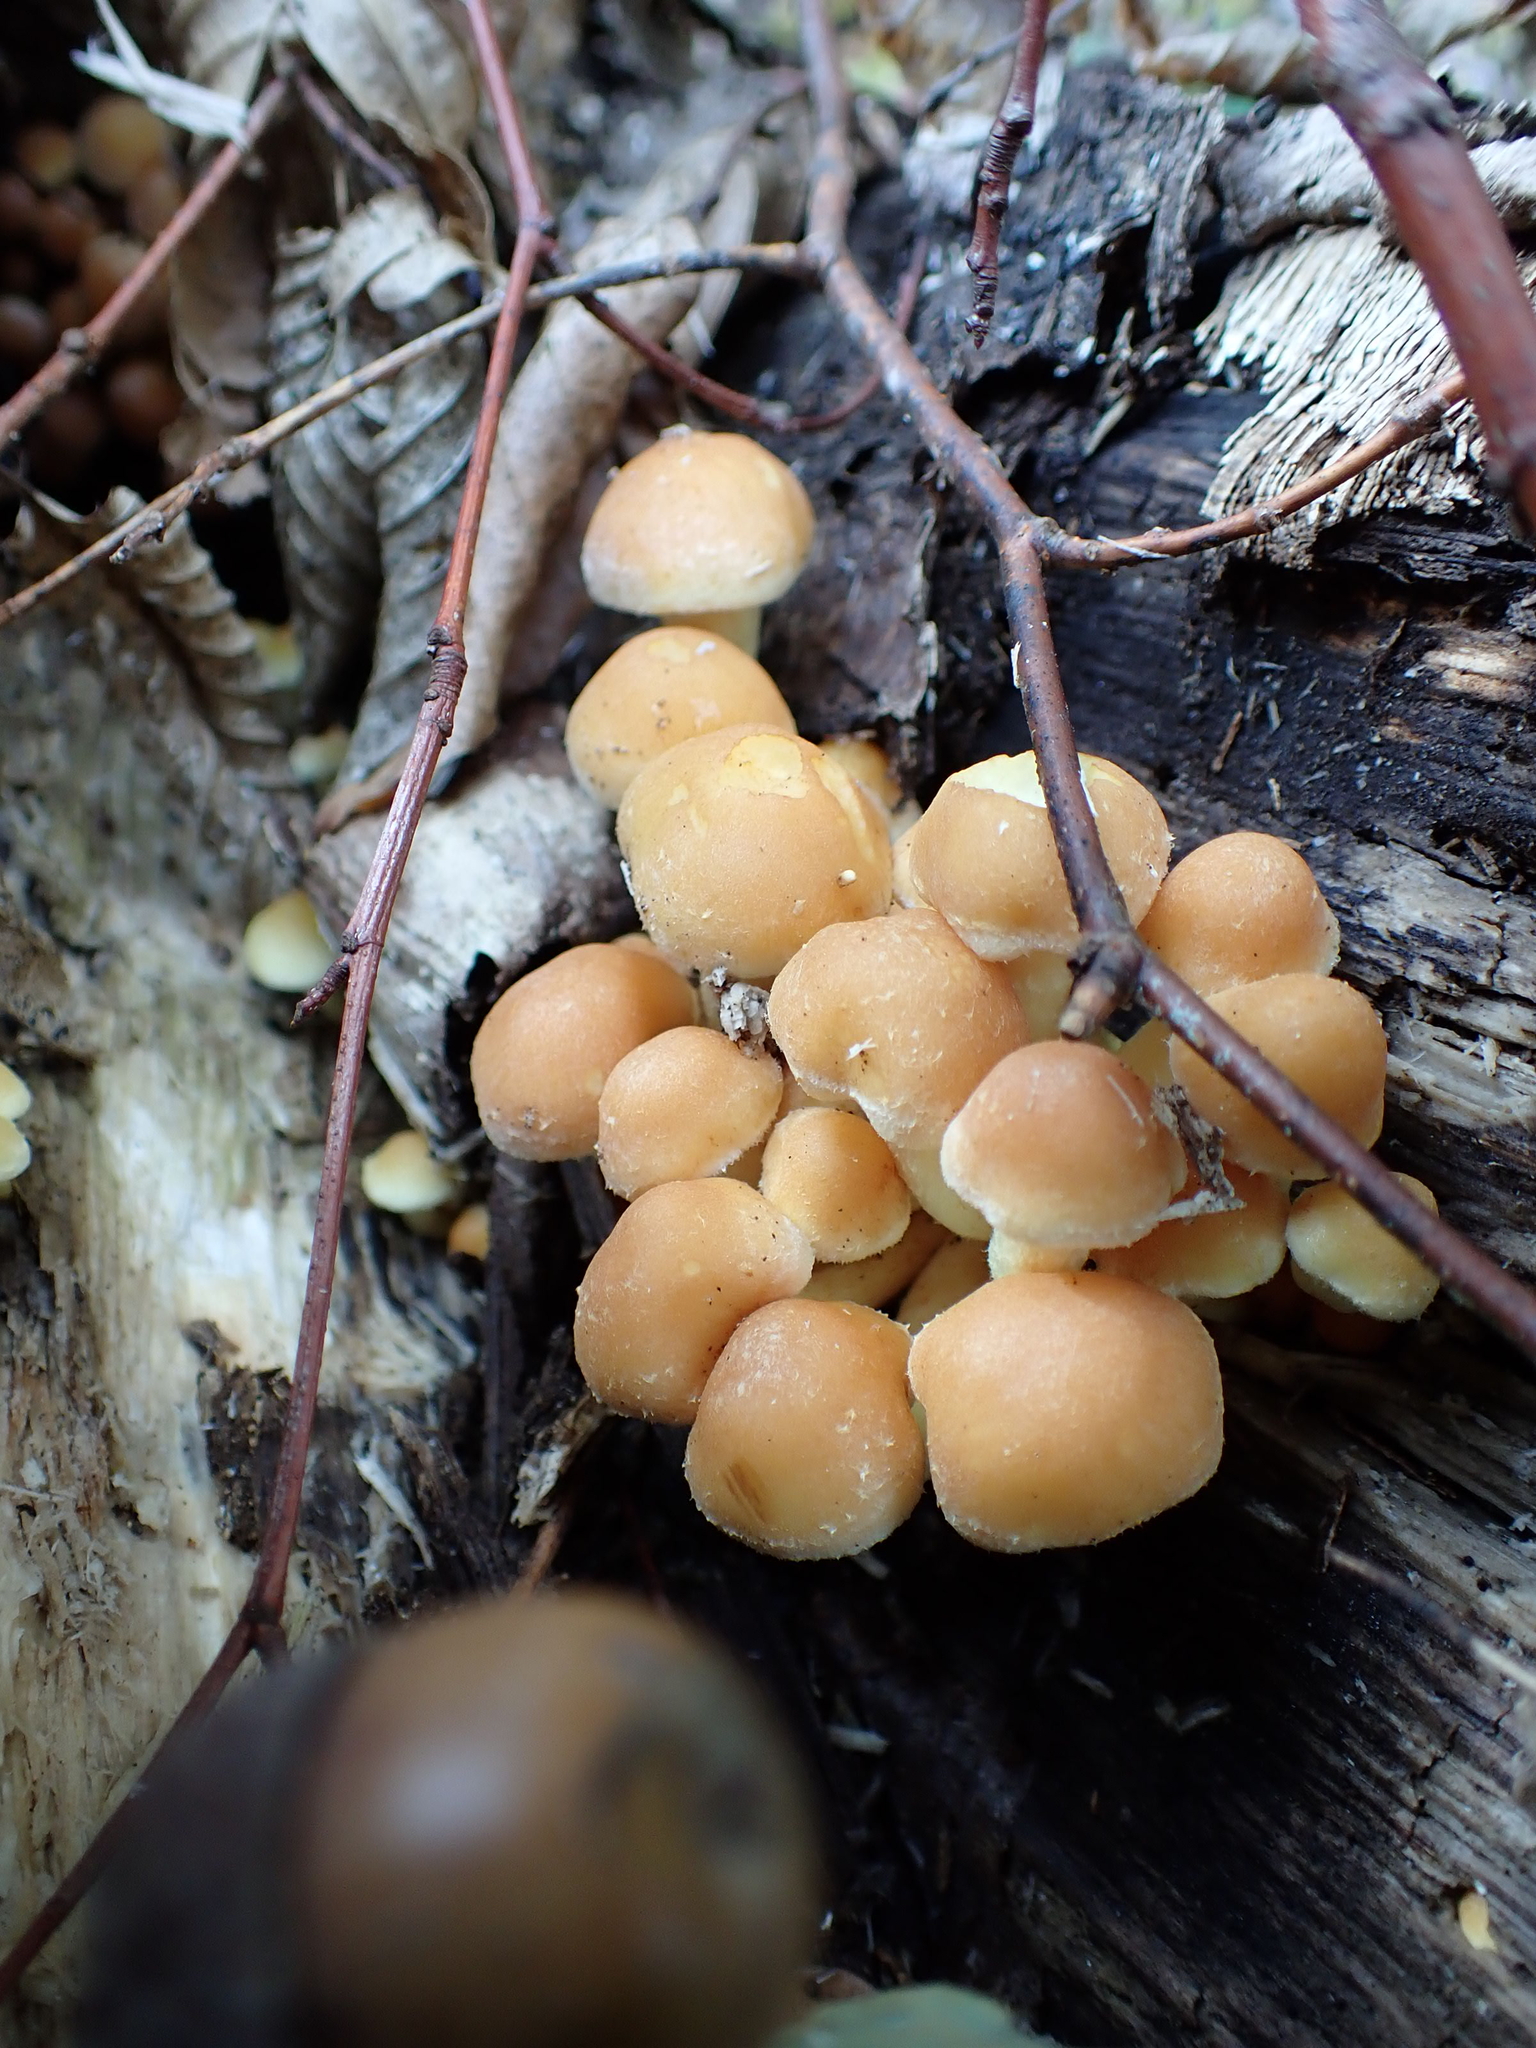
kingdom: Fungi
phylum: Basidiomycota
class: Agaricomycetes
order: Agaricales
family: Strophariaceae
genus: Hypholoma
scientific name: Hypholoma fasciculare
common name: Sulphur tuft
